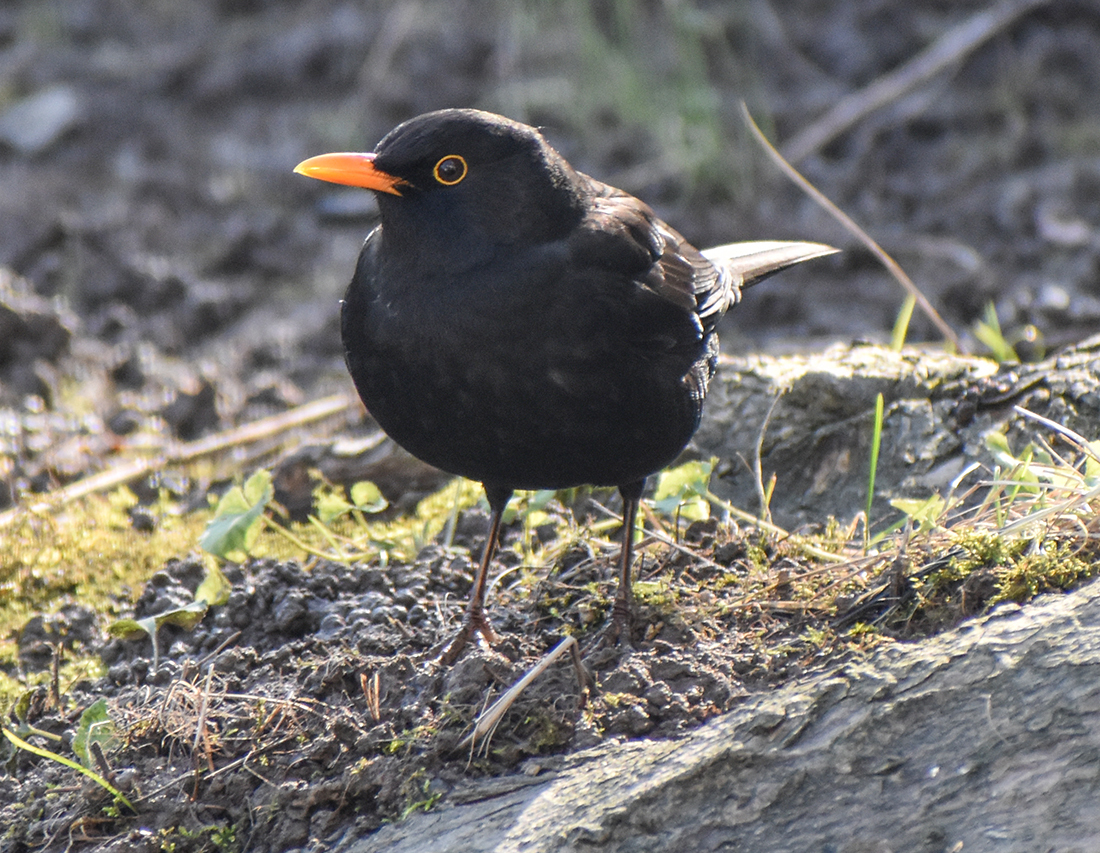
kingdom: Animalia
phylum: Chordata
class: Aves
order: Passeriformes
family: Turdidae
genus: Turdus
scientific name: Turdus merula
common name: Common blackbird
